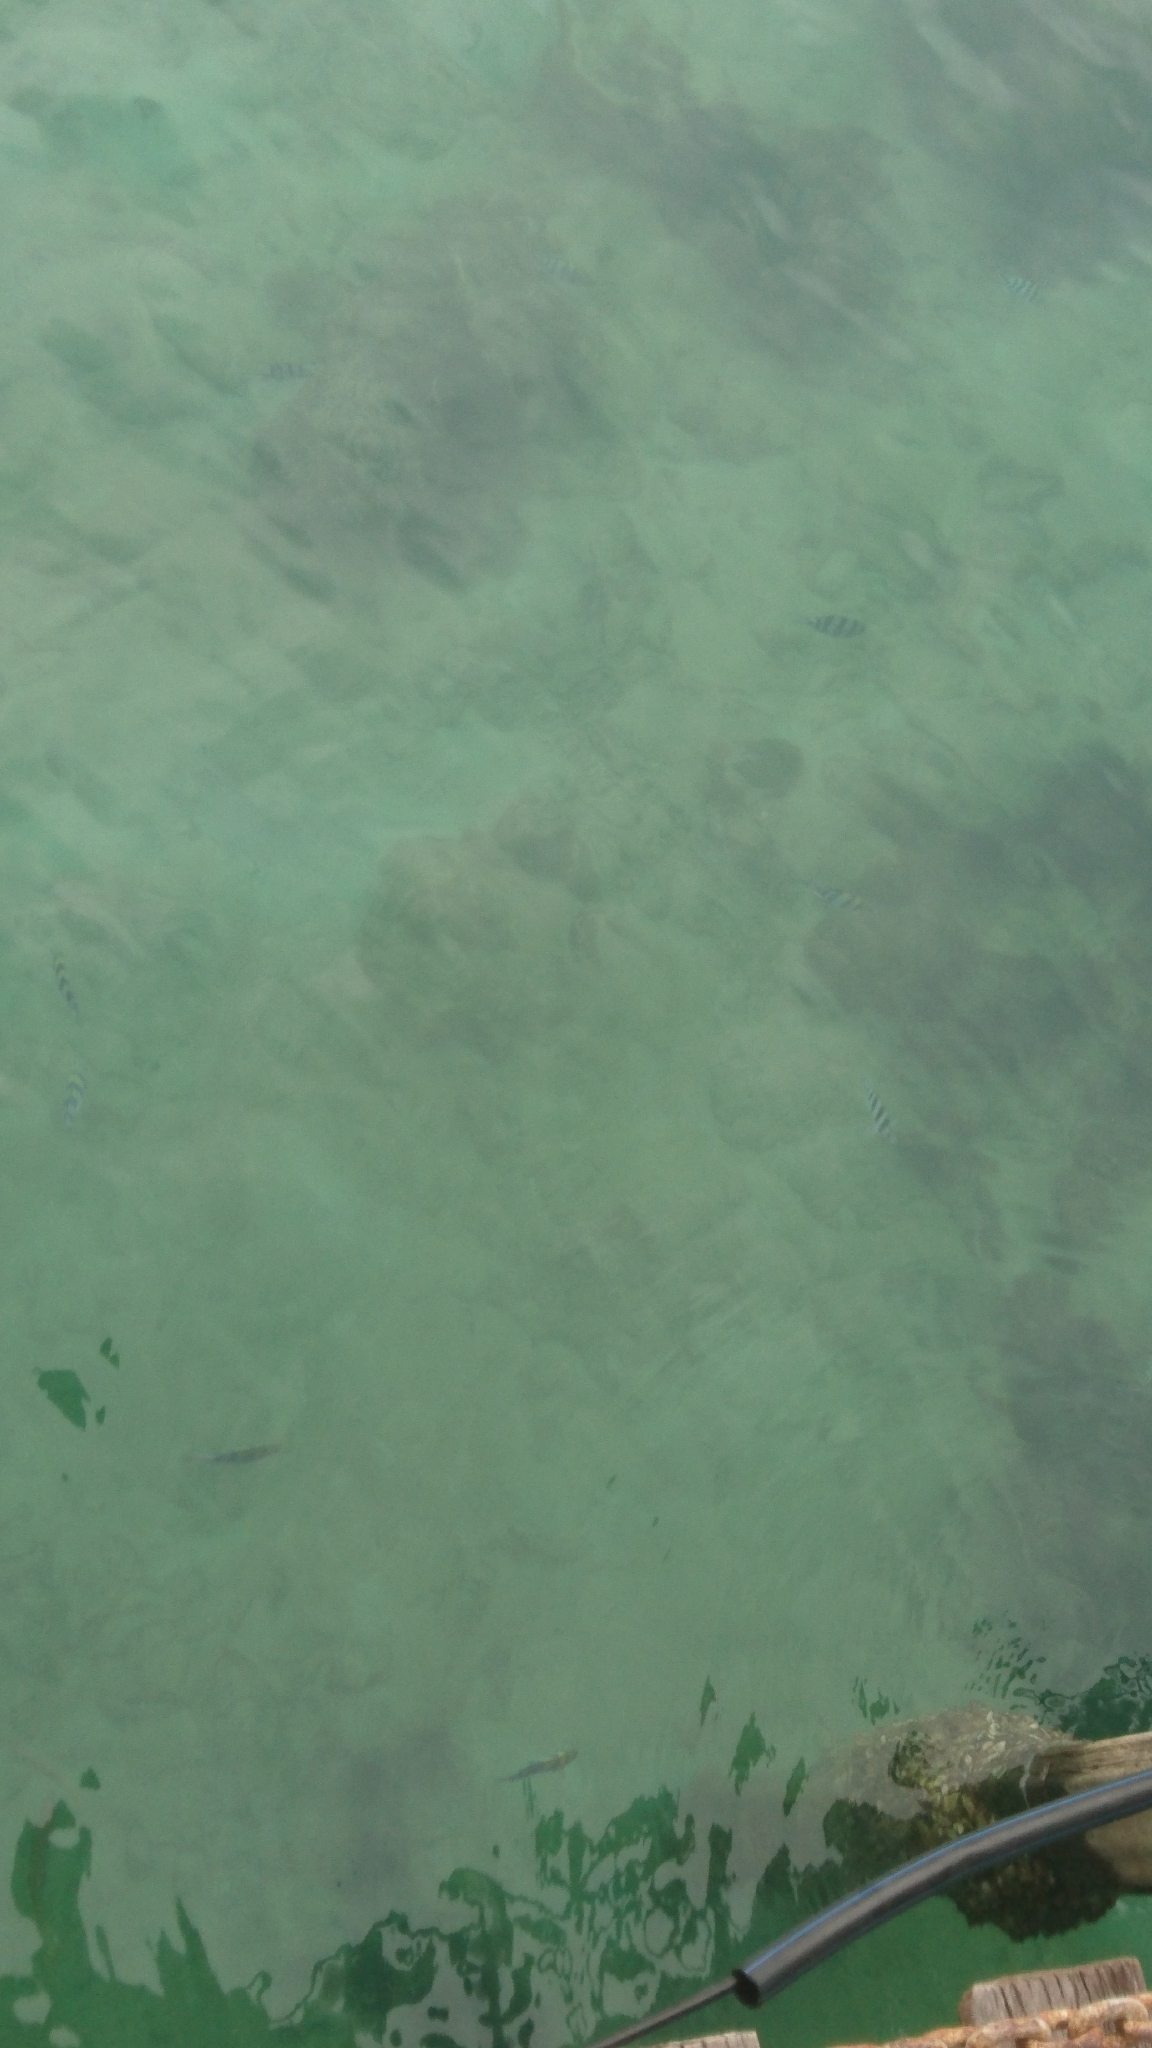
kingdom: Animalia
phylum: Chordata
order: Perciformes
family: Pomacentridae
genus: Abudefduf
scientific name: Abudefduf vaigiensis
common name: Indo-pacific sergeant
